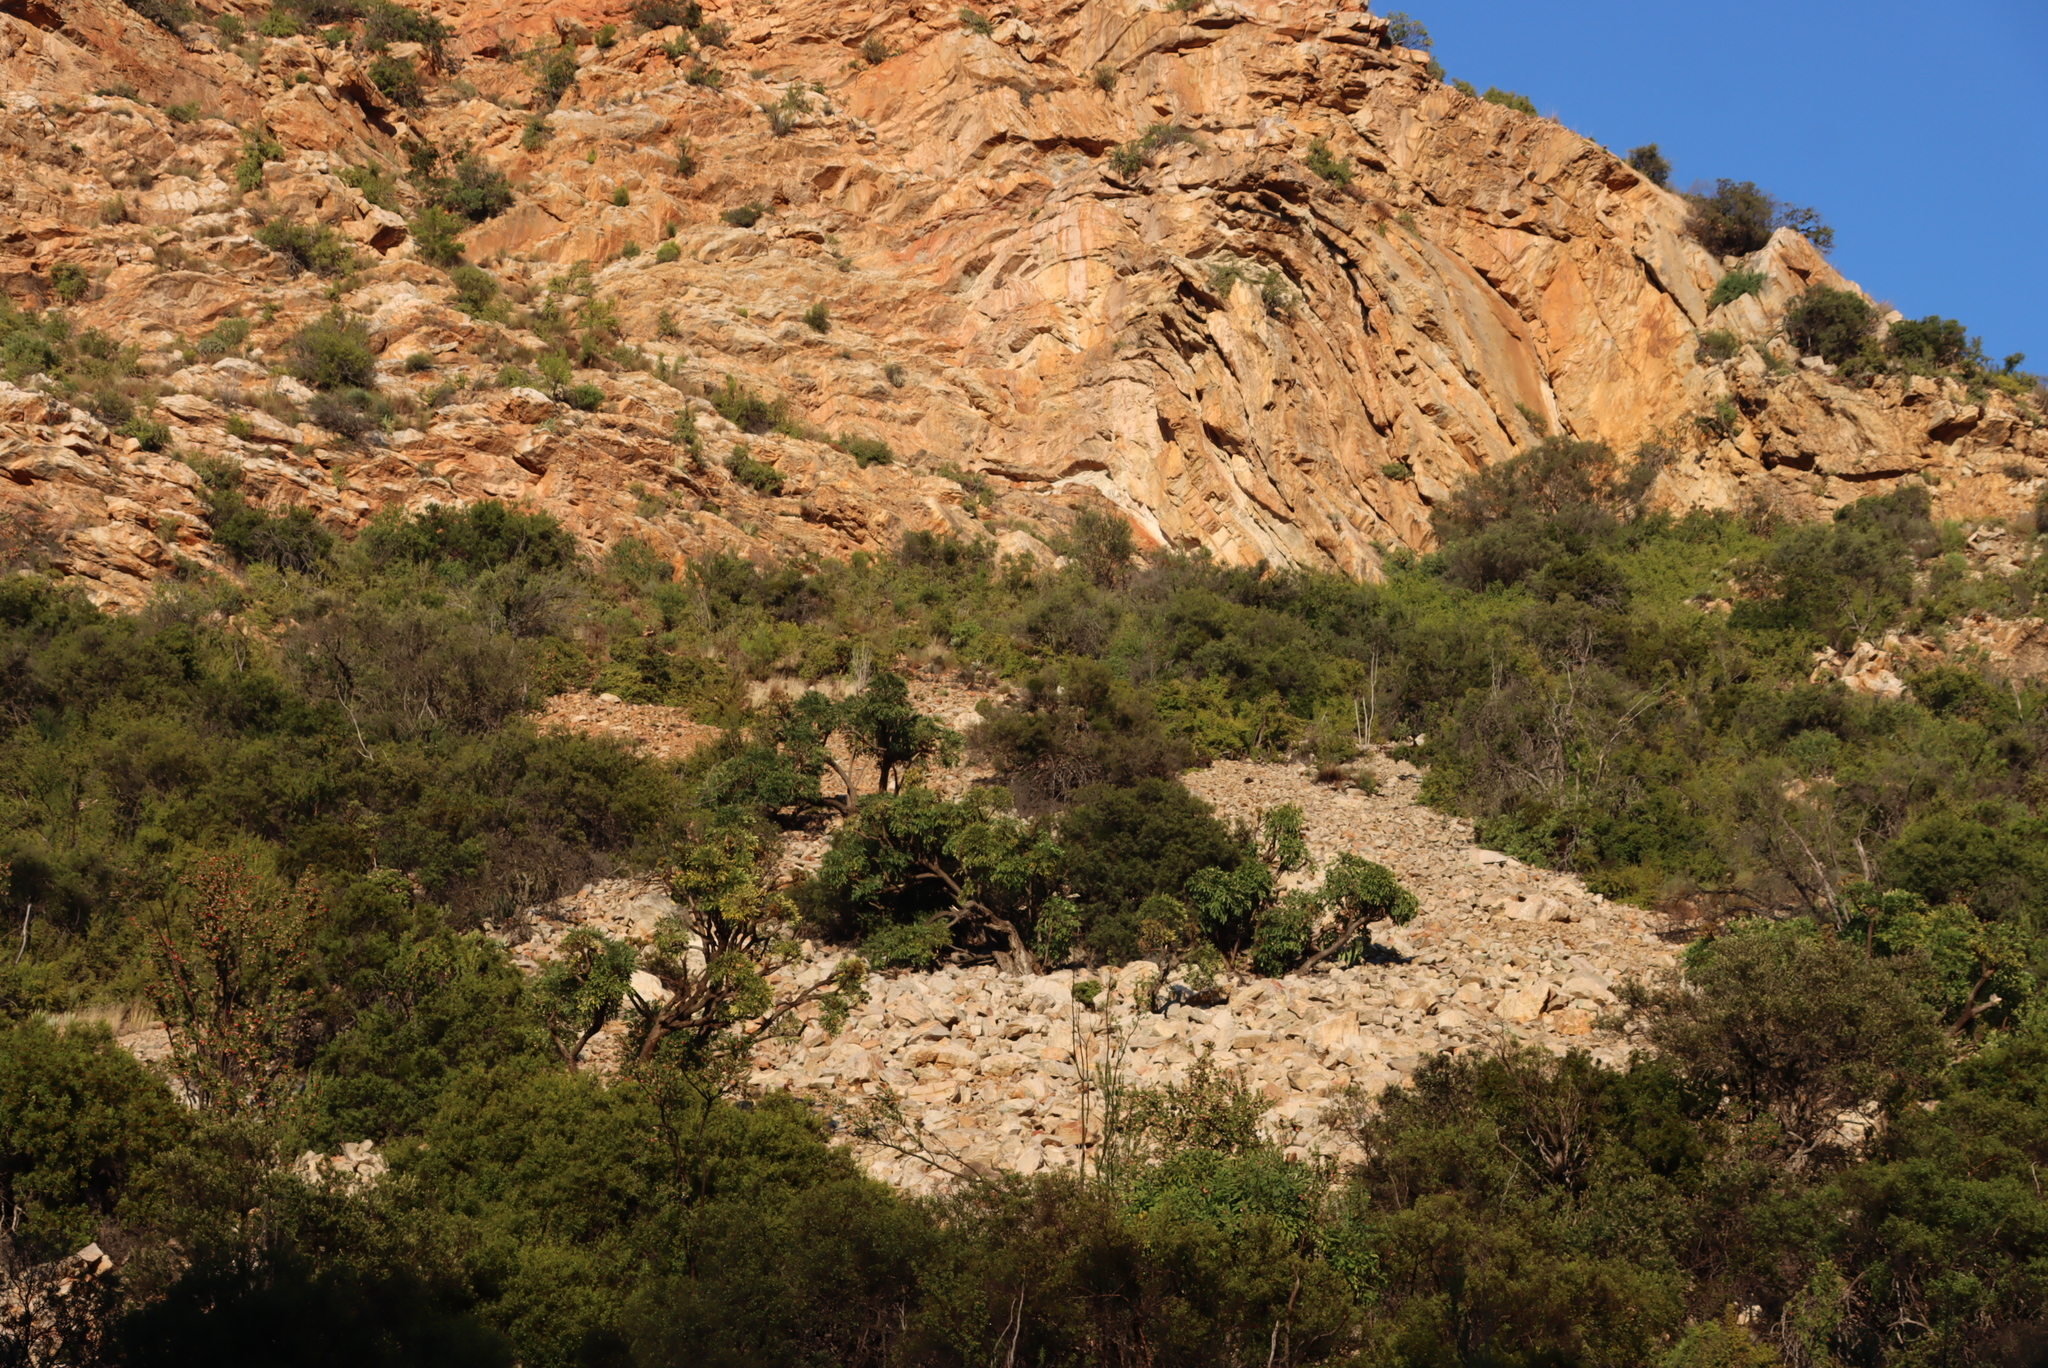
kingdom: Plantae
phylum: Tracheophyta
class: Magnoliopsida
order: Caryophyllales
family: Didiereaceae
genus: Portulacaria
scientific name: Portulacaria afra
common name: Elephant-bush
